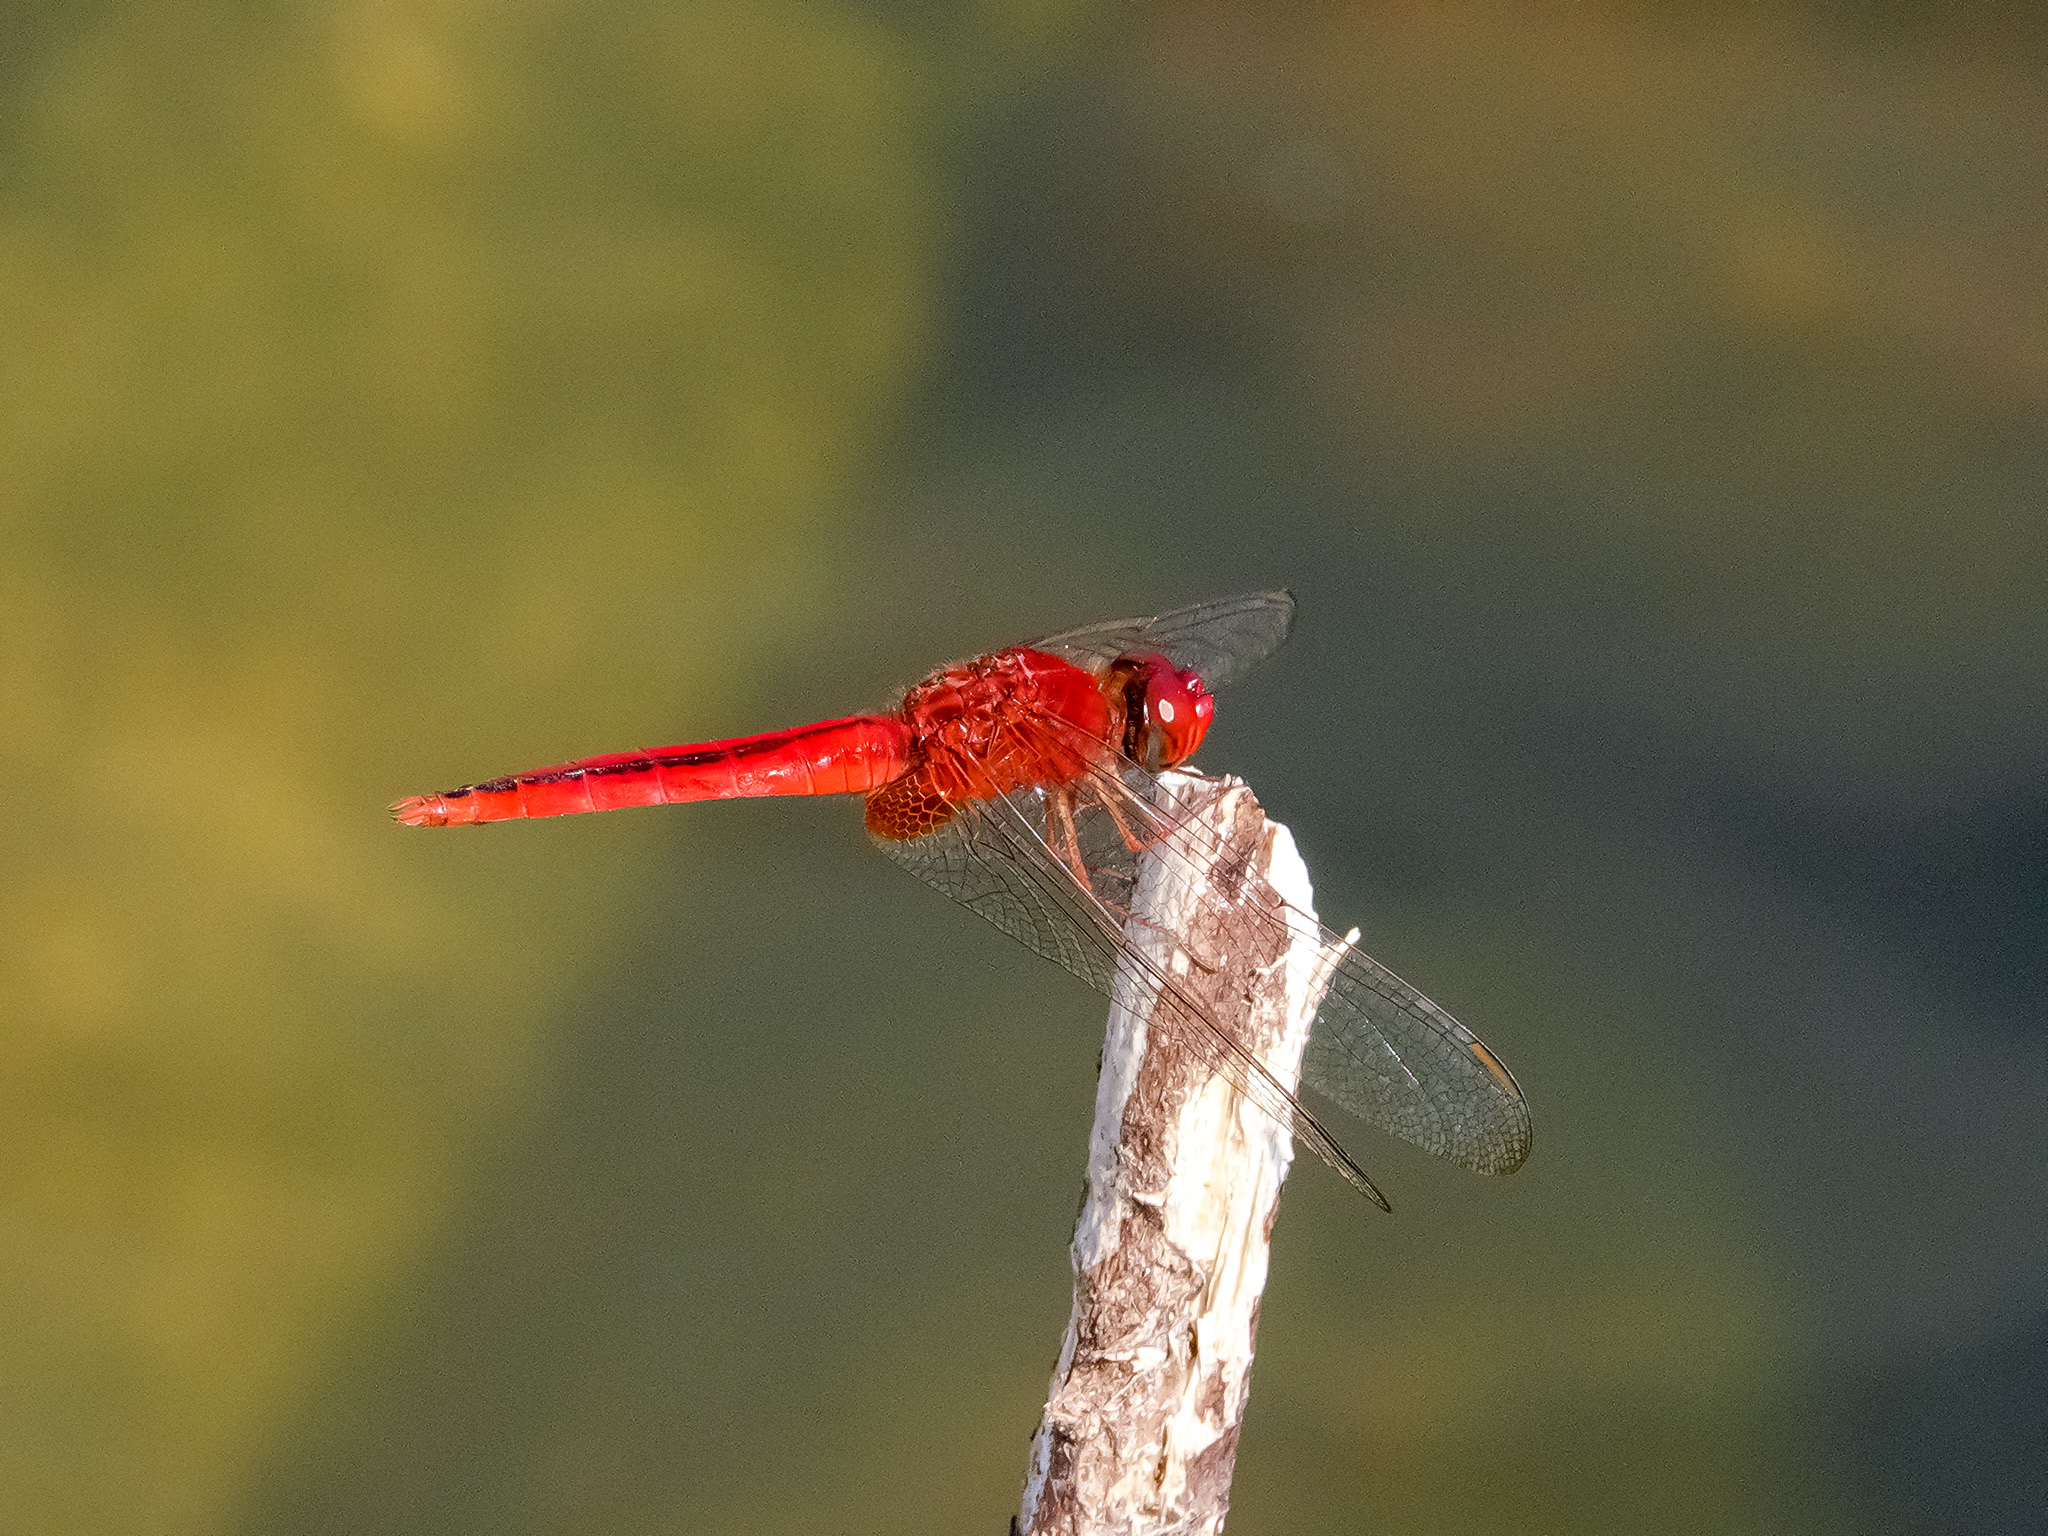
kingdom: Animalia
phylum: Arthropoda
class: Insecta
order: Odonata
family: Libellulidae
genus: Crocothemis
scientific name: Crocothemis servilia
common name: Scarlet skimmer
